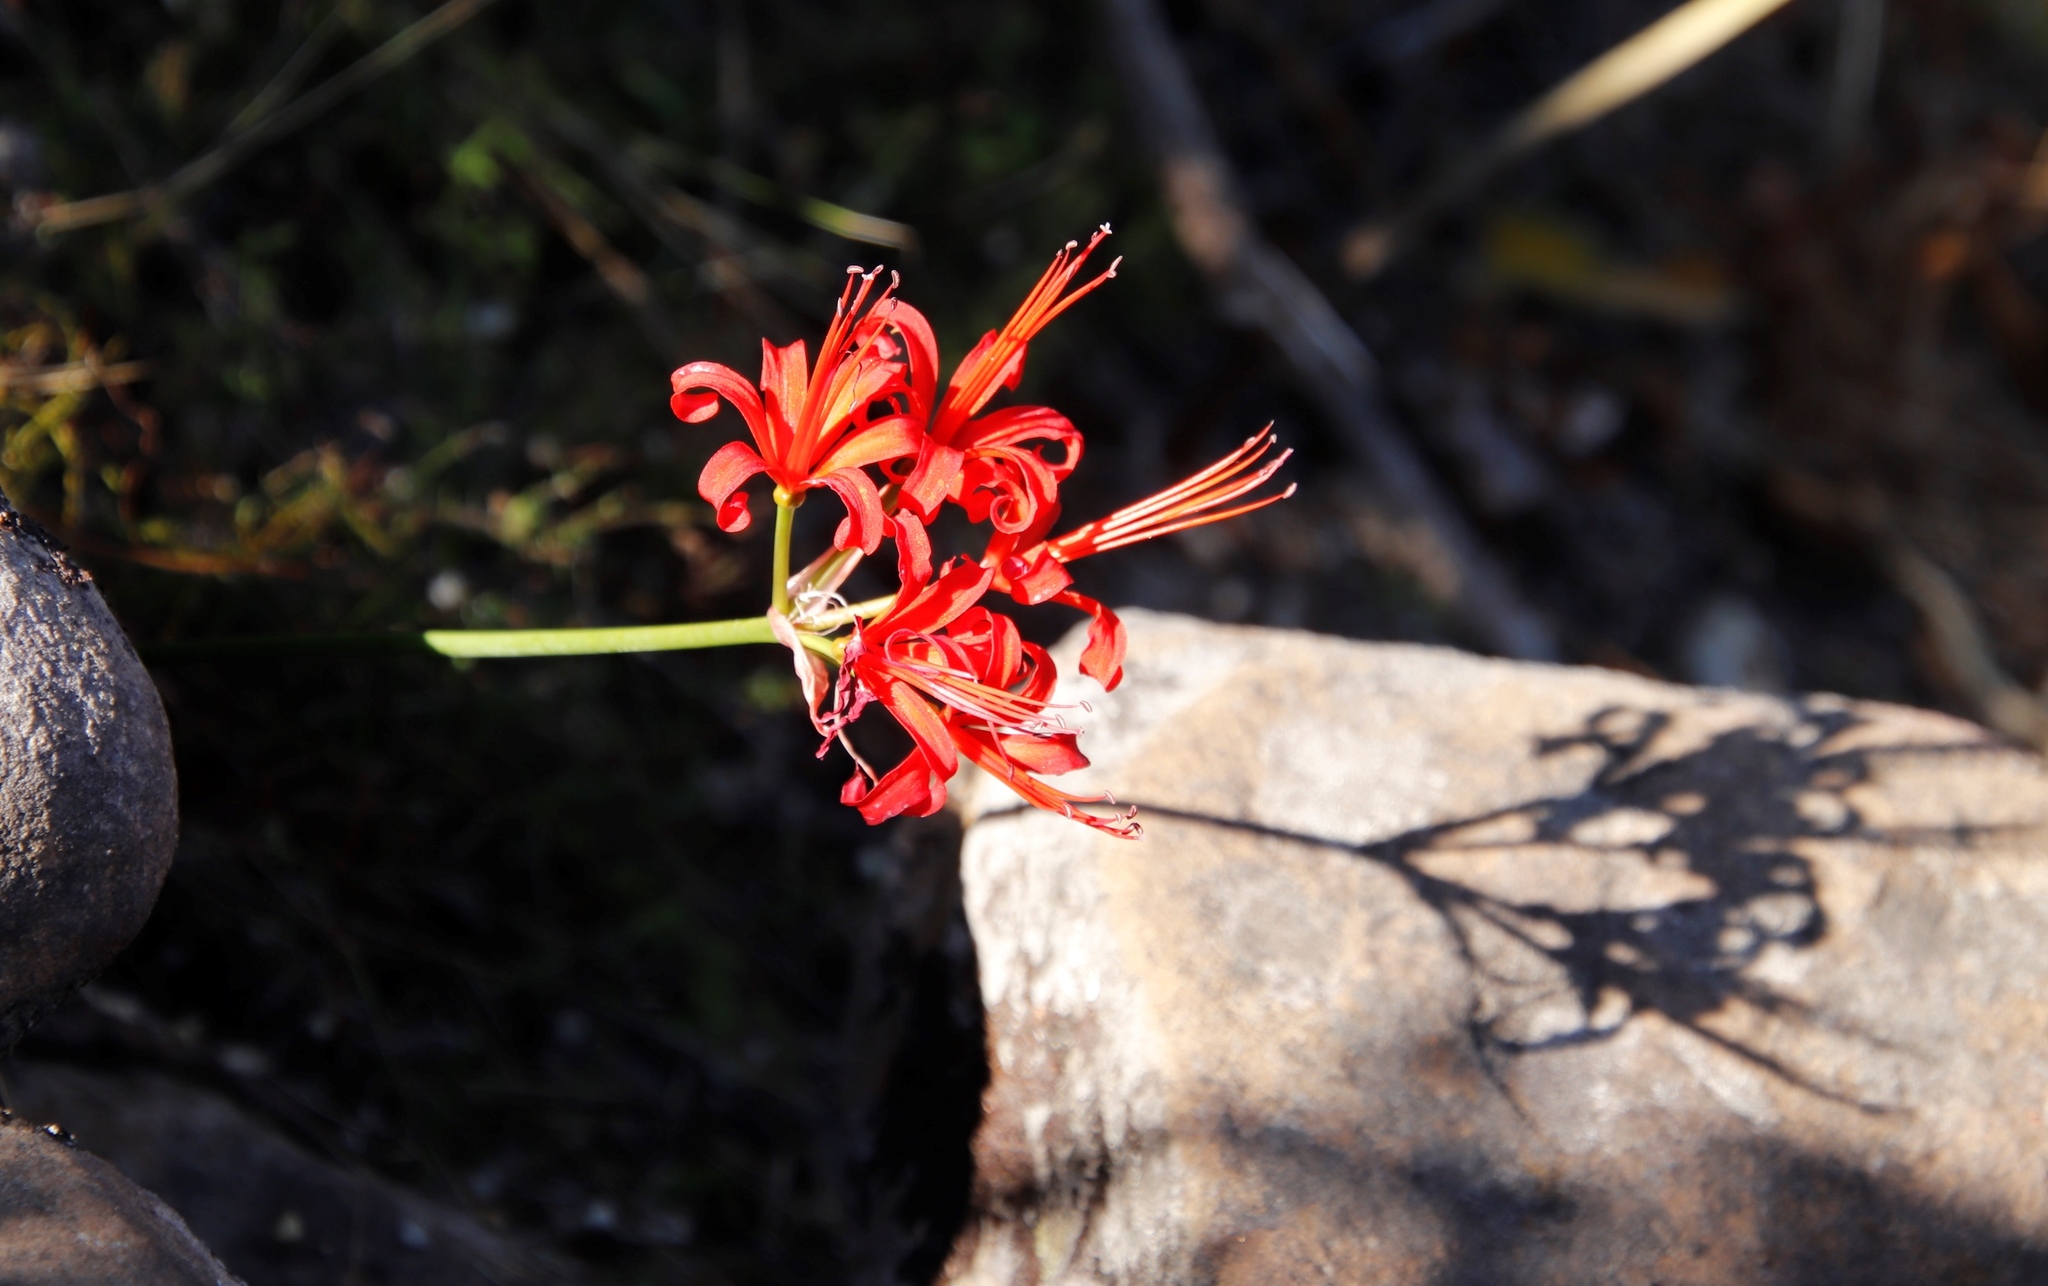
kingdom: Plantae
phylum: Tracheophyta
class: Liliopsida
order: Asparagales
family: Amaryllidaceae
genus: Nerine
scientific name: Nerine sarniensis
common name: Guernsey-lily
